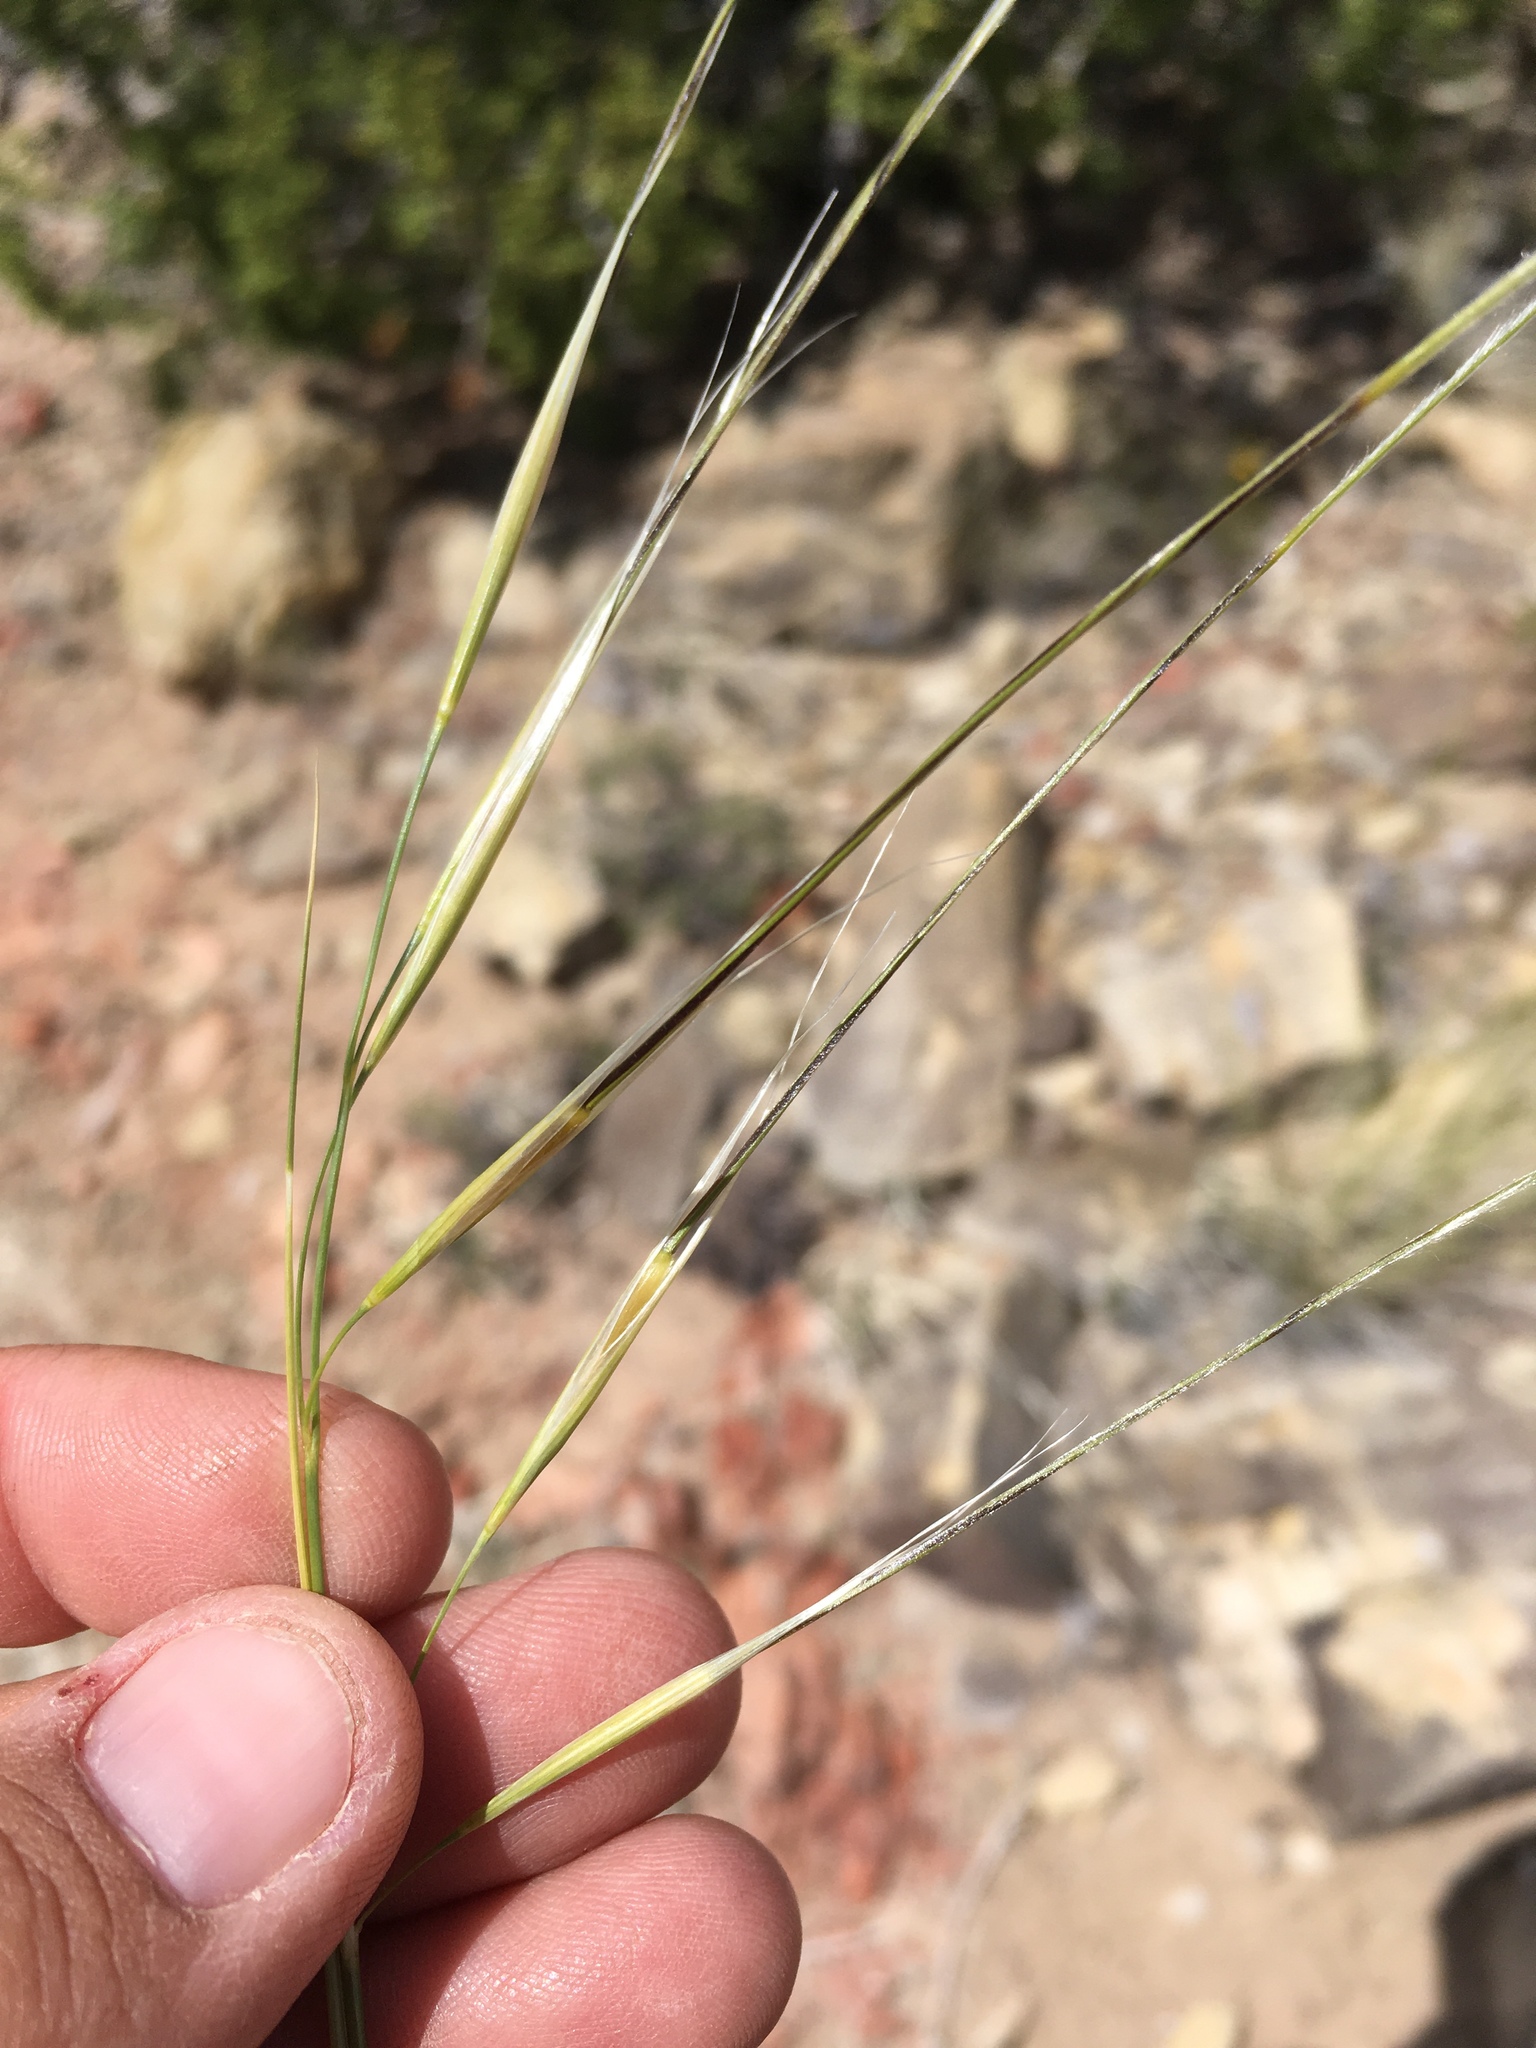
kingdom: Plantae
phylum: Tracheophyta
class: Liliopsida
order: Poales
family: Poaceae
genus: Hesperostipa
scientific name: Hesperostipa neomexicana
